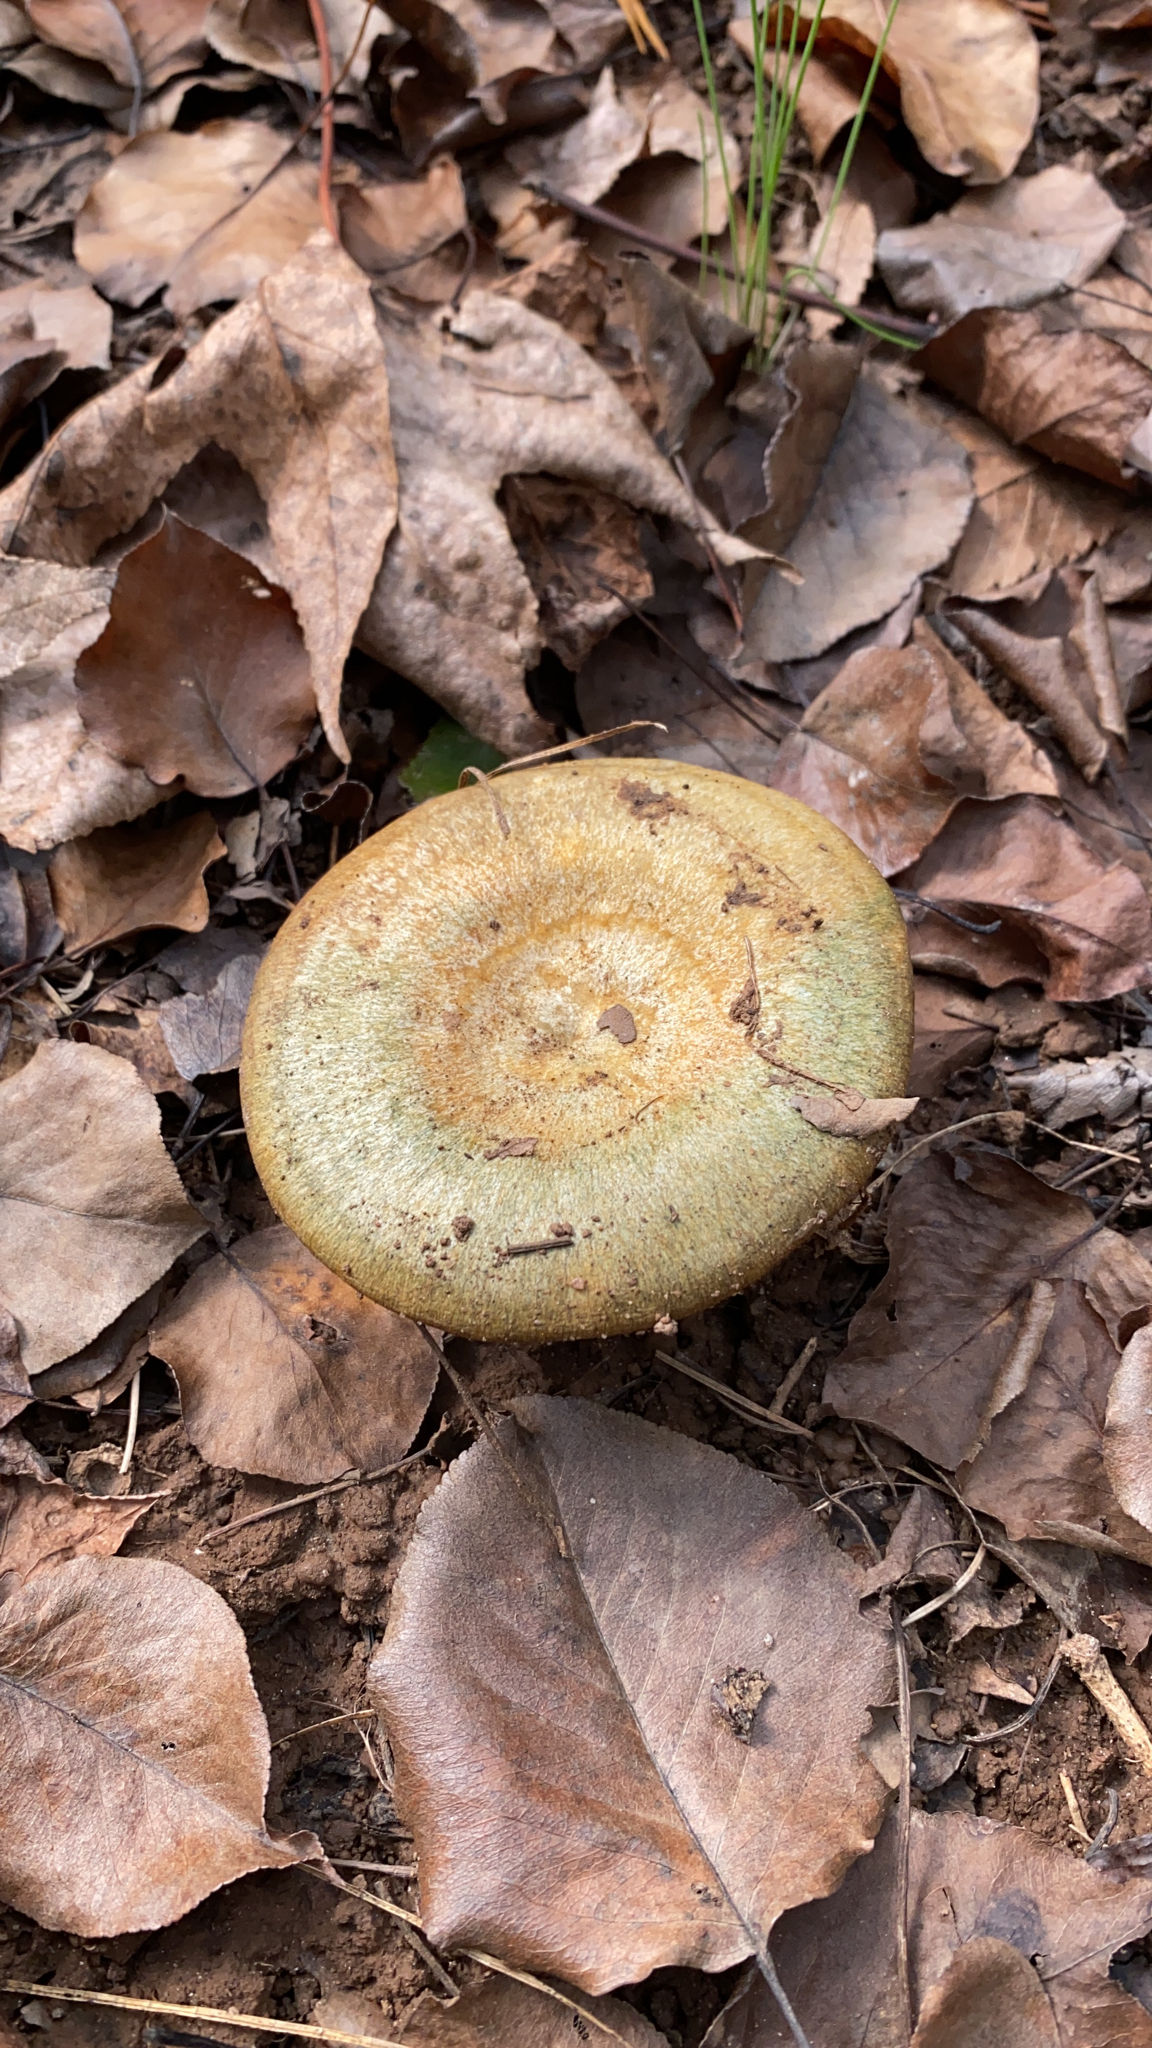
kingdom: Fungi
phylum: Basidiomycota
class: Agaricomycetes
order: Russulales
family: Russulaceae
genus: Lactarius
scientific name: Lactarius deliciosus
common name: Saffron milk-cap
